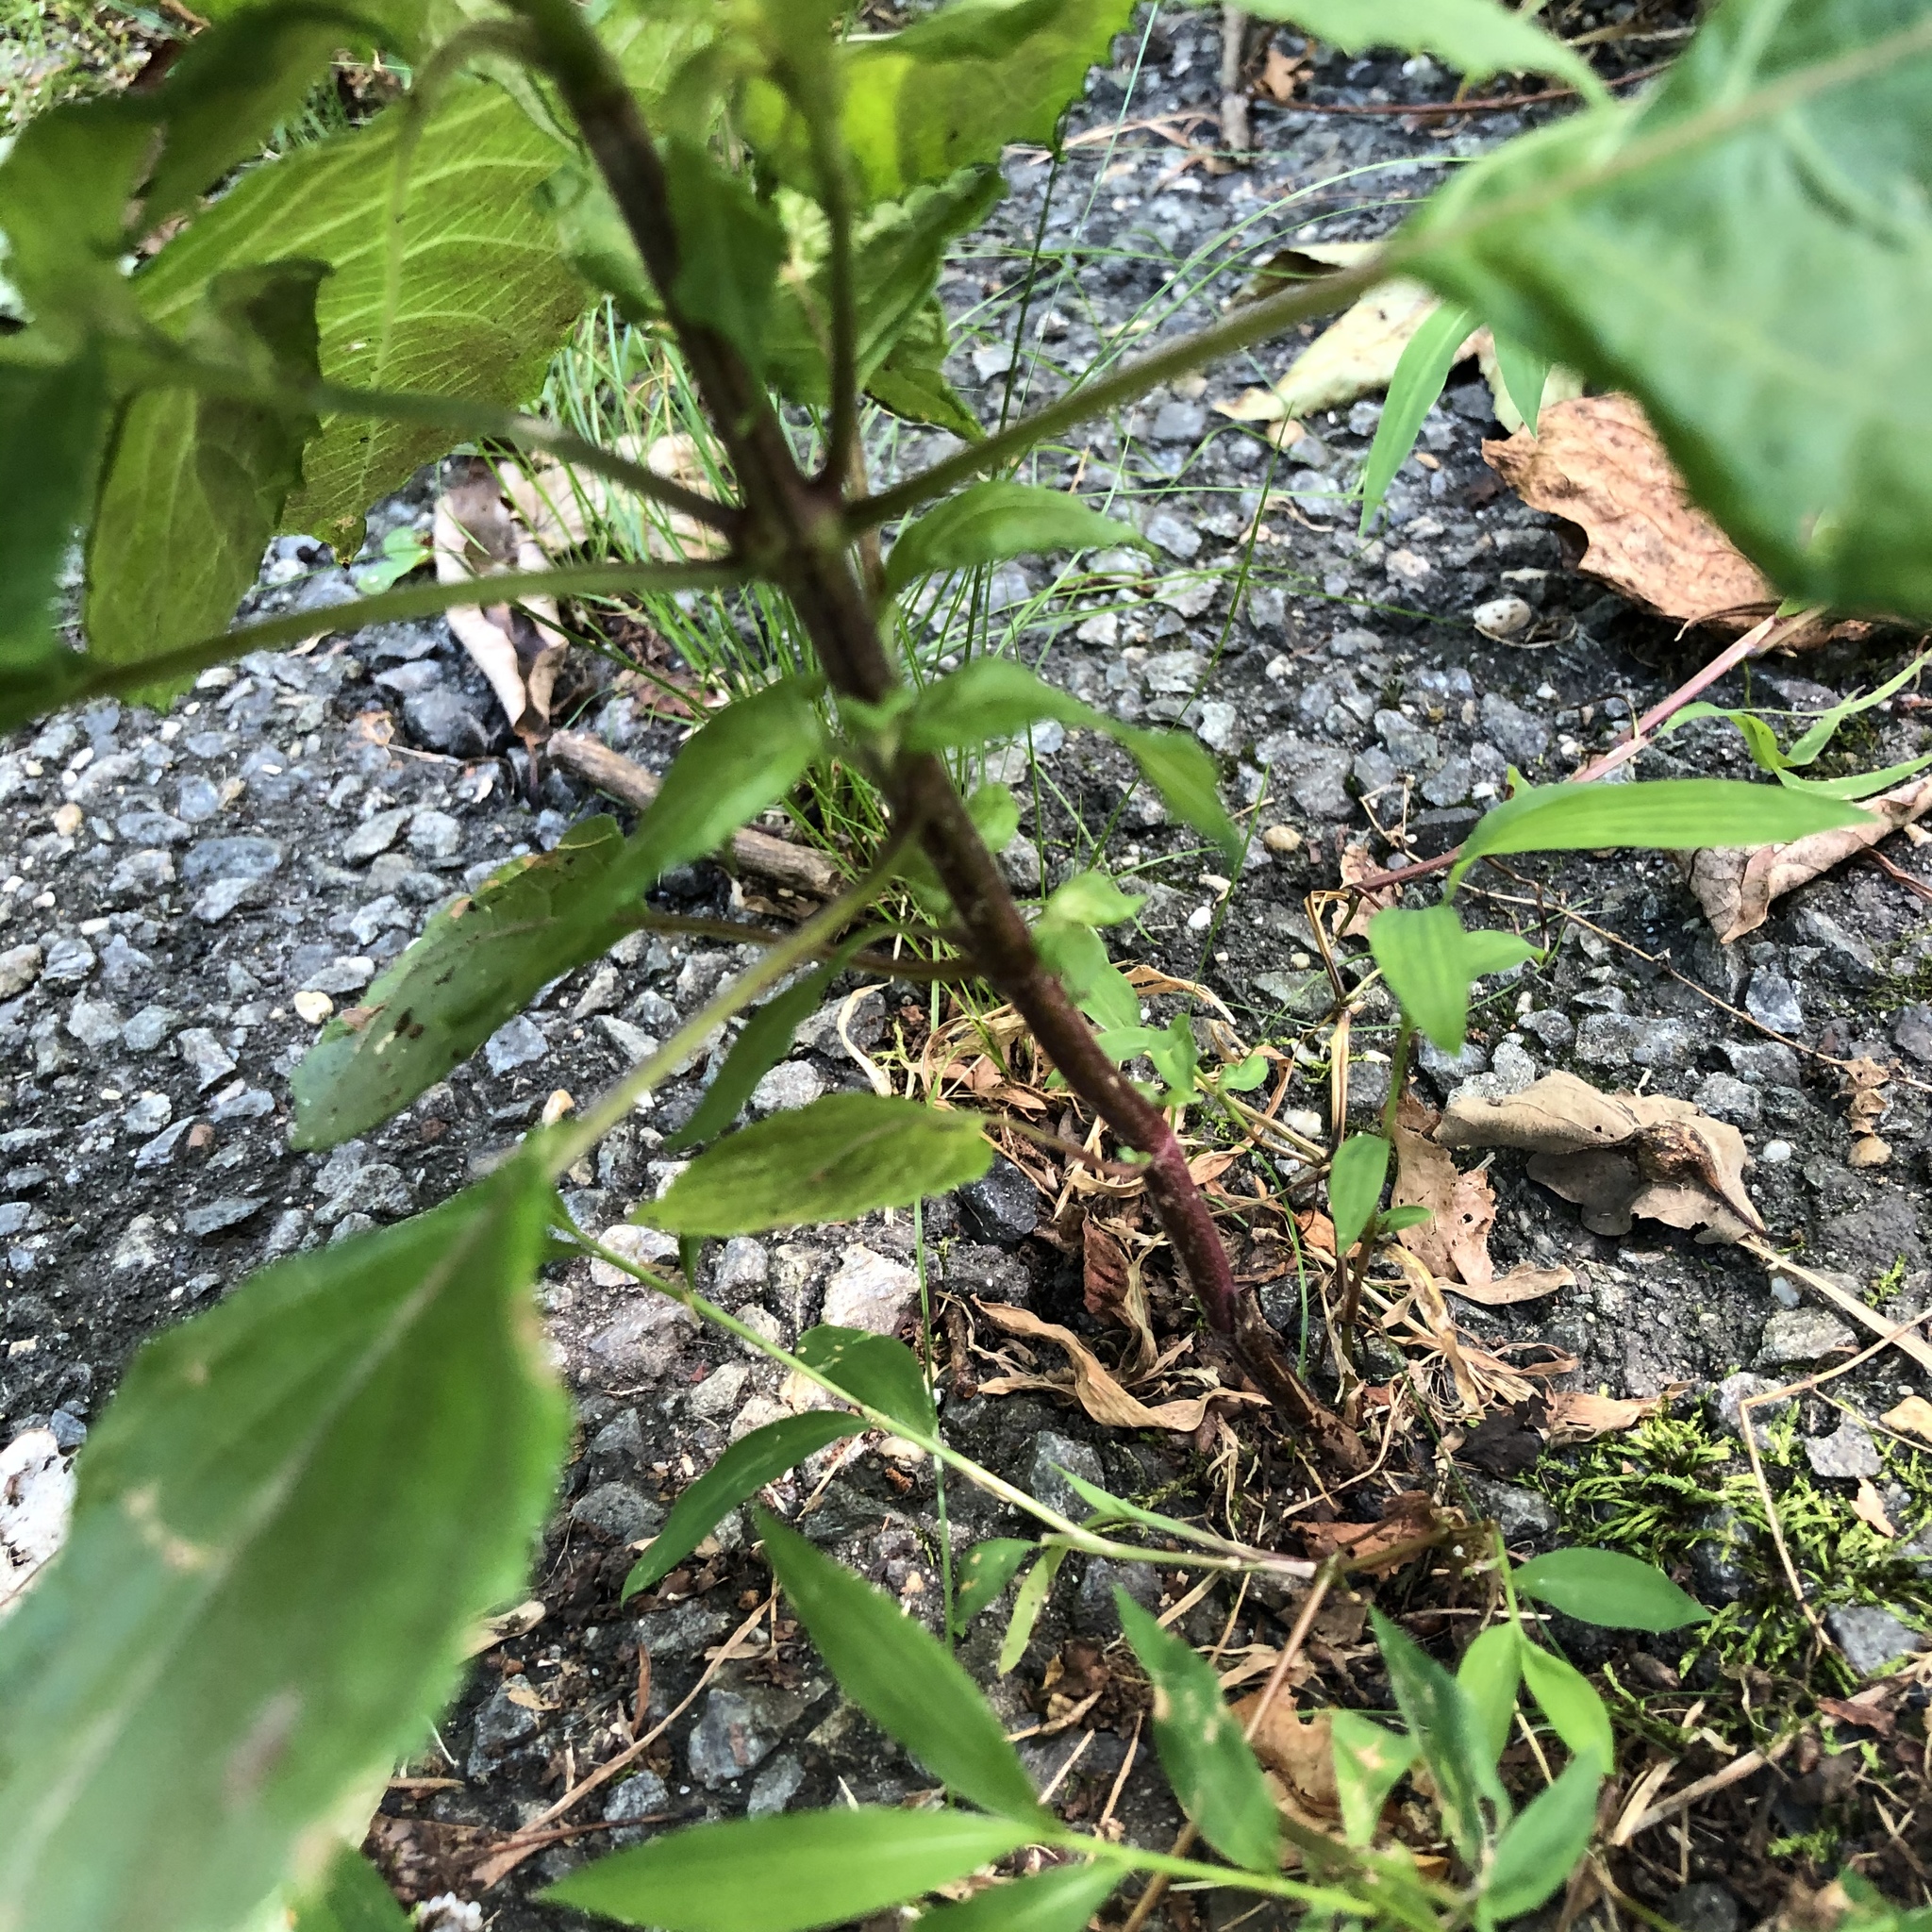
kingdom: Plantae
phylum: Tracheophyta
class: Magnoliopsida
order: Lamiales
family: Lamiaceae
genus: Perilla
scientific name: Perilla frutescens
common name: Perilla
